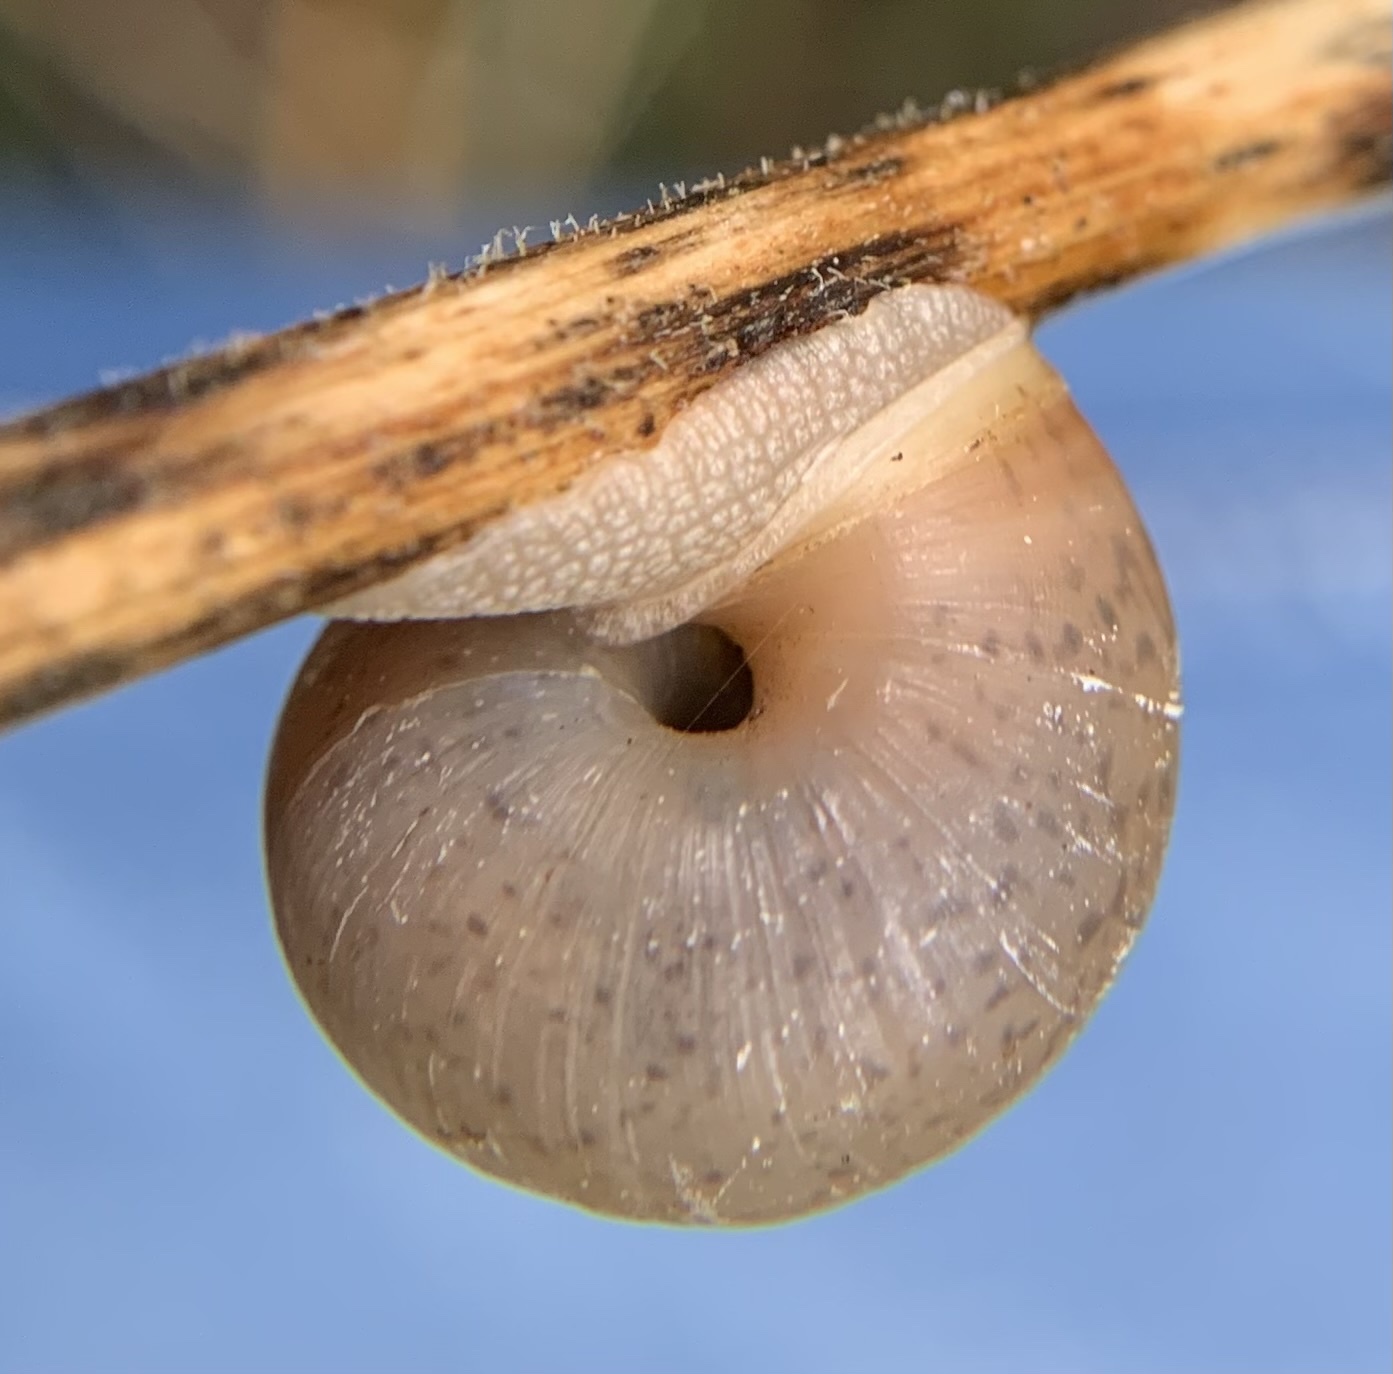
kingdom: Animalia
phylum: Mollusca
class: Gastropoda
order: Stylommatophora
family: Camaenidae
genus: Fruticicola
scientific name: Fruticicola fruticum
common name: Bush snail
